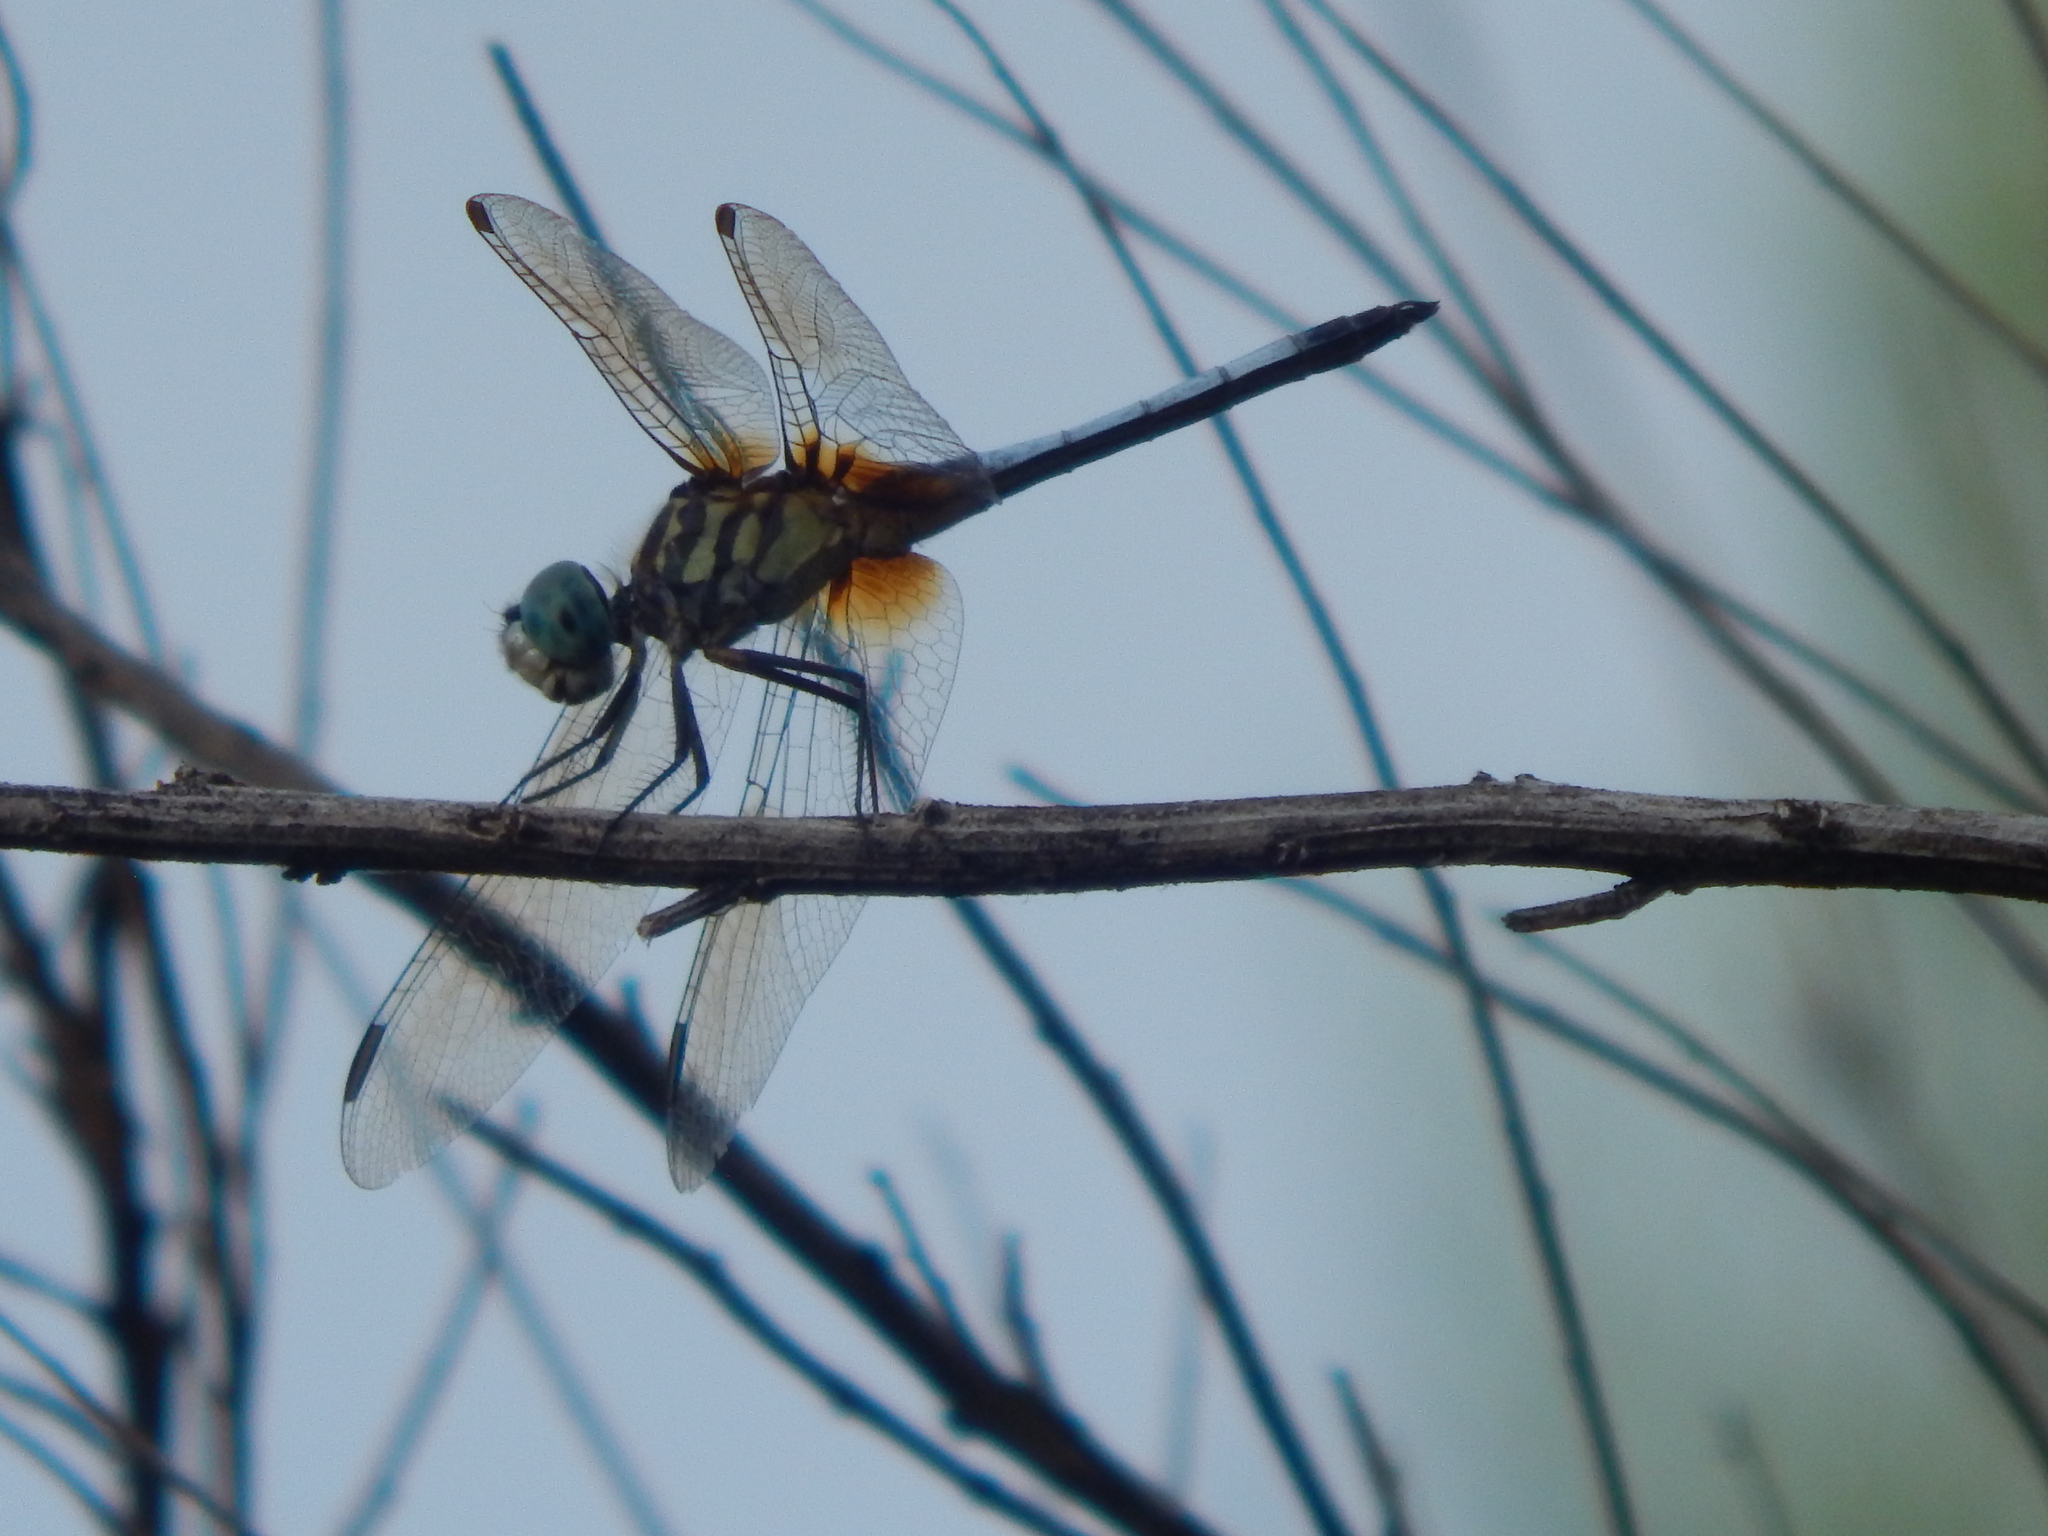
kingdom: Animalia
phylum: Arthropoda
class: Insecta
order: Odonata
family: Libellulidae
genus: Pachydiplax
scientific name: Pachydiplax longipennis
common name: Blue dasher
